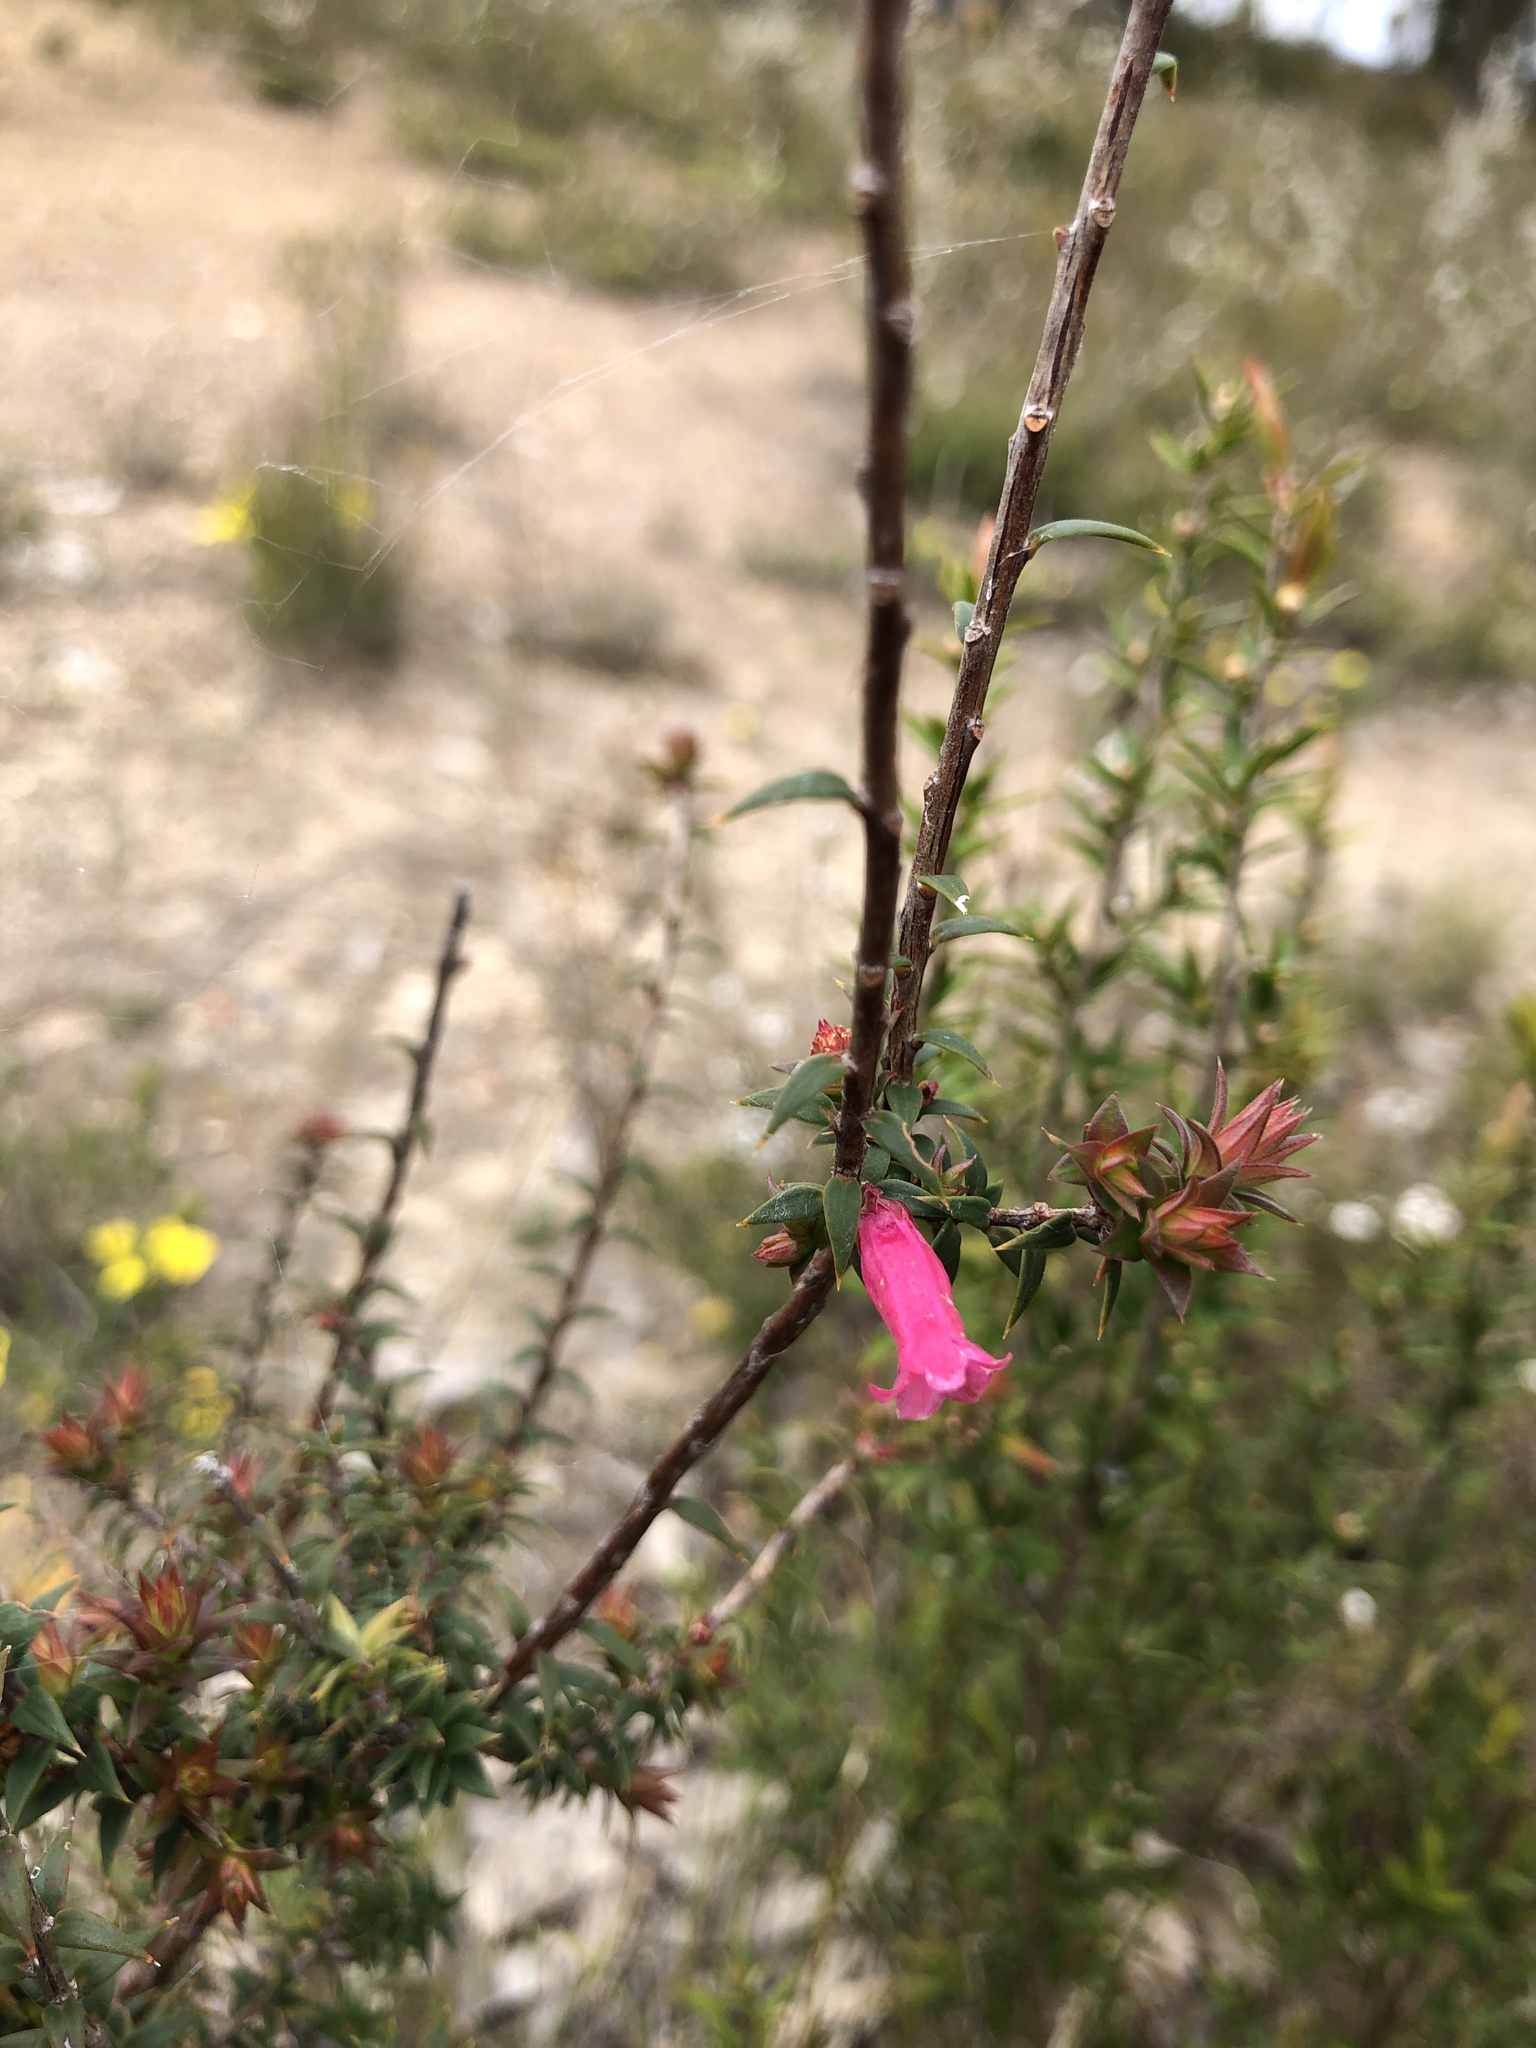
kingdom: Plantae
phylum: Tracheophyta
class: Magnoliopsida
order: Ericales
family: Ericaceae
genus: Epacris
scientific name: Epacris impressa
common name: Common-heath
